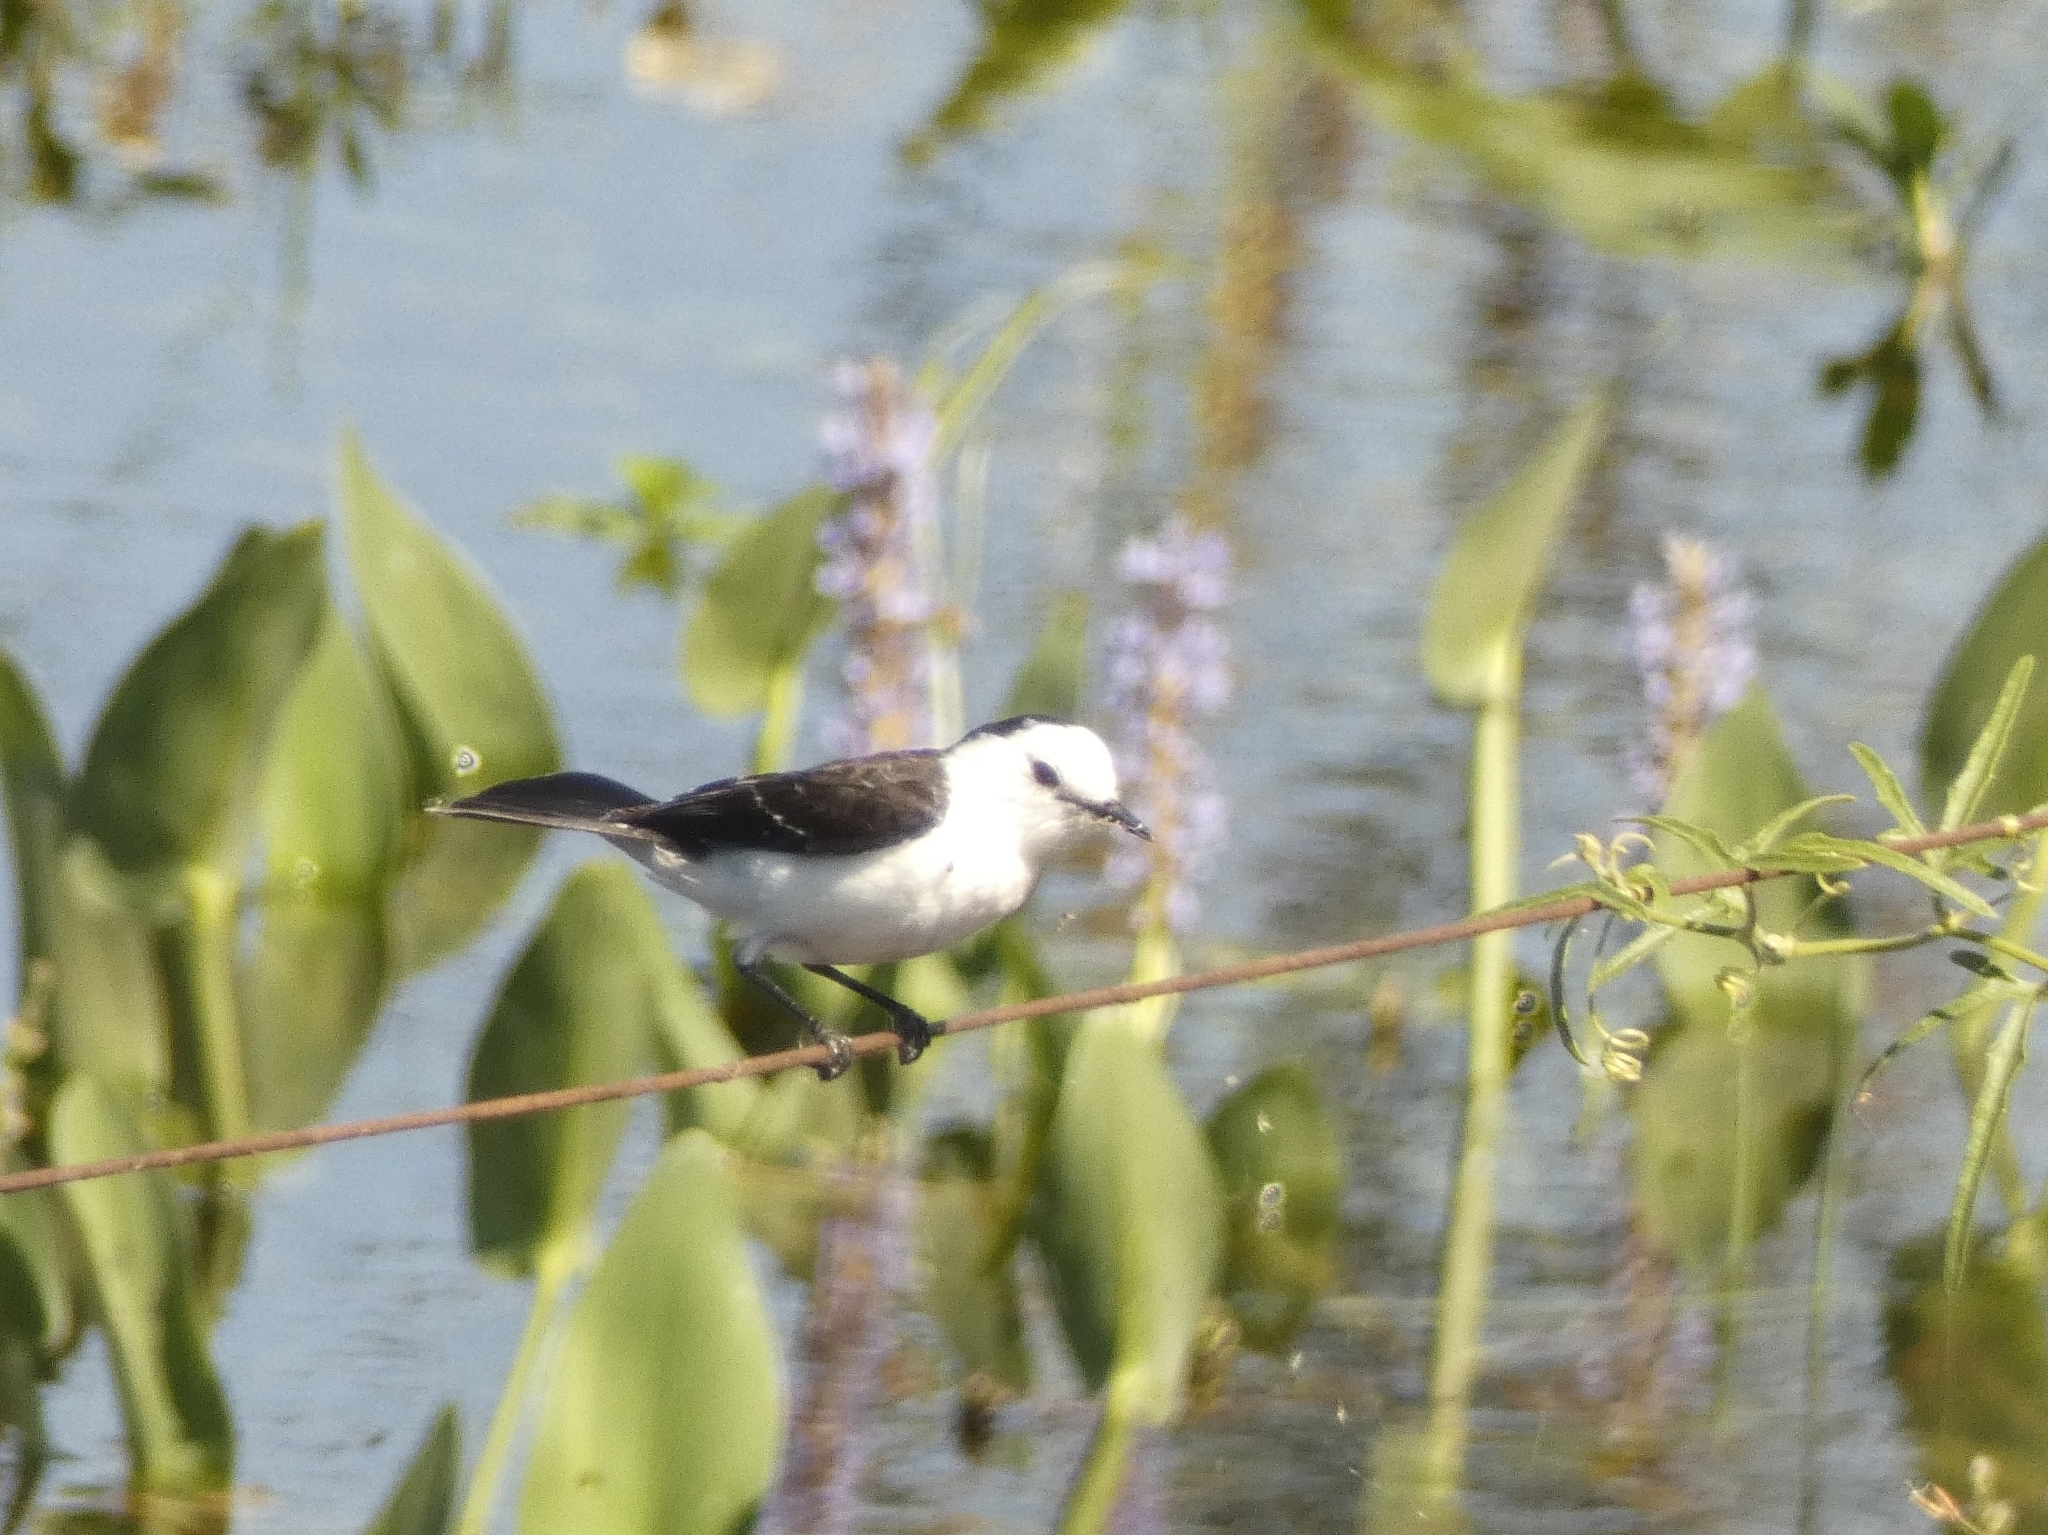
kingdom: Animalia
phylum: Chordata
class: Aves
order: Passeriformes
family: Tyrannidae
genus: Fluvicola
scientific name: Fluvicola pica
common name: Pied water-tyrant
